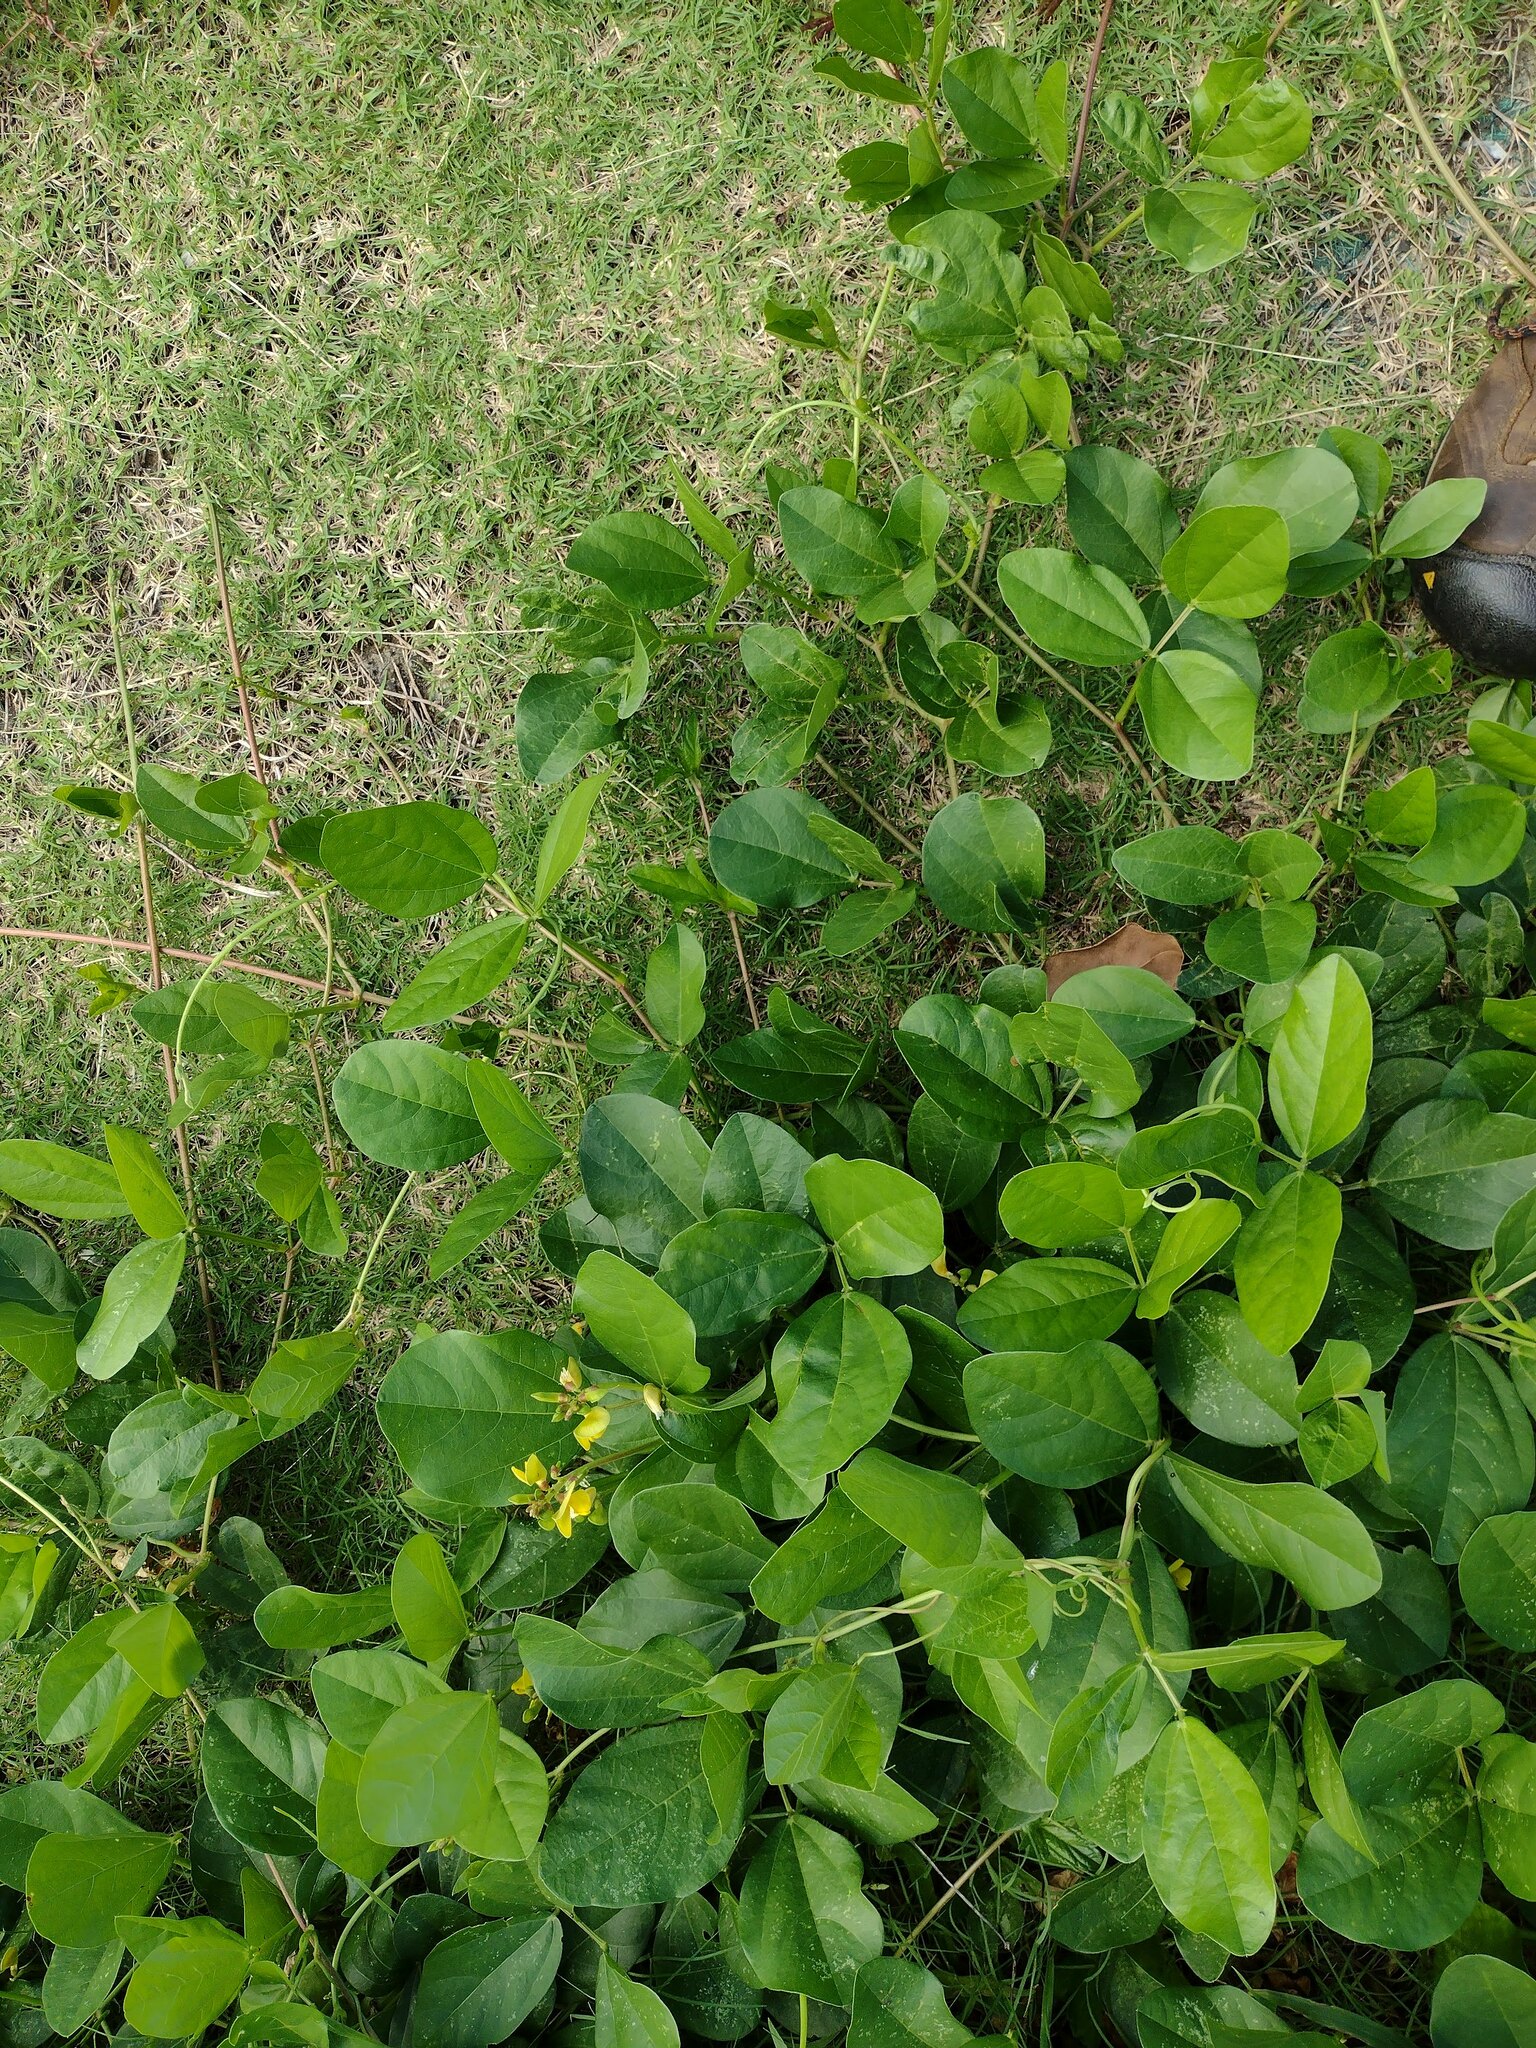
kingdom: Plantae
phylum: Tracheophyta
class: Magnoliopsida
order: Fabales
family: Fabaceae
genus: Vigna
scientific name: Vigna marina
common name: Dune-bean
